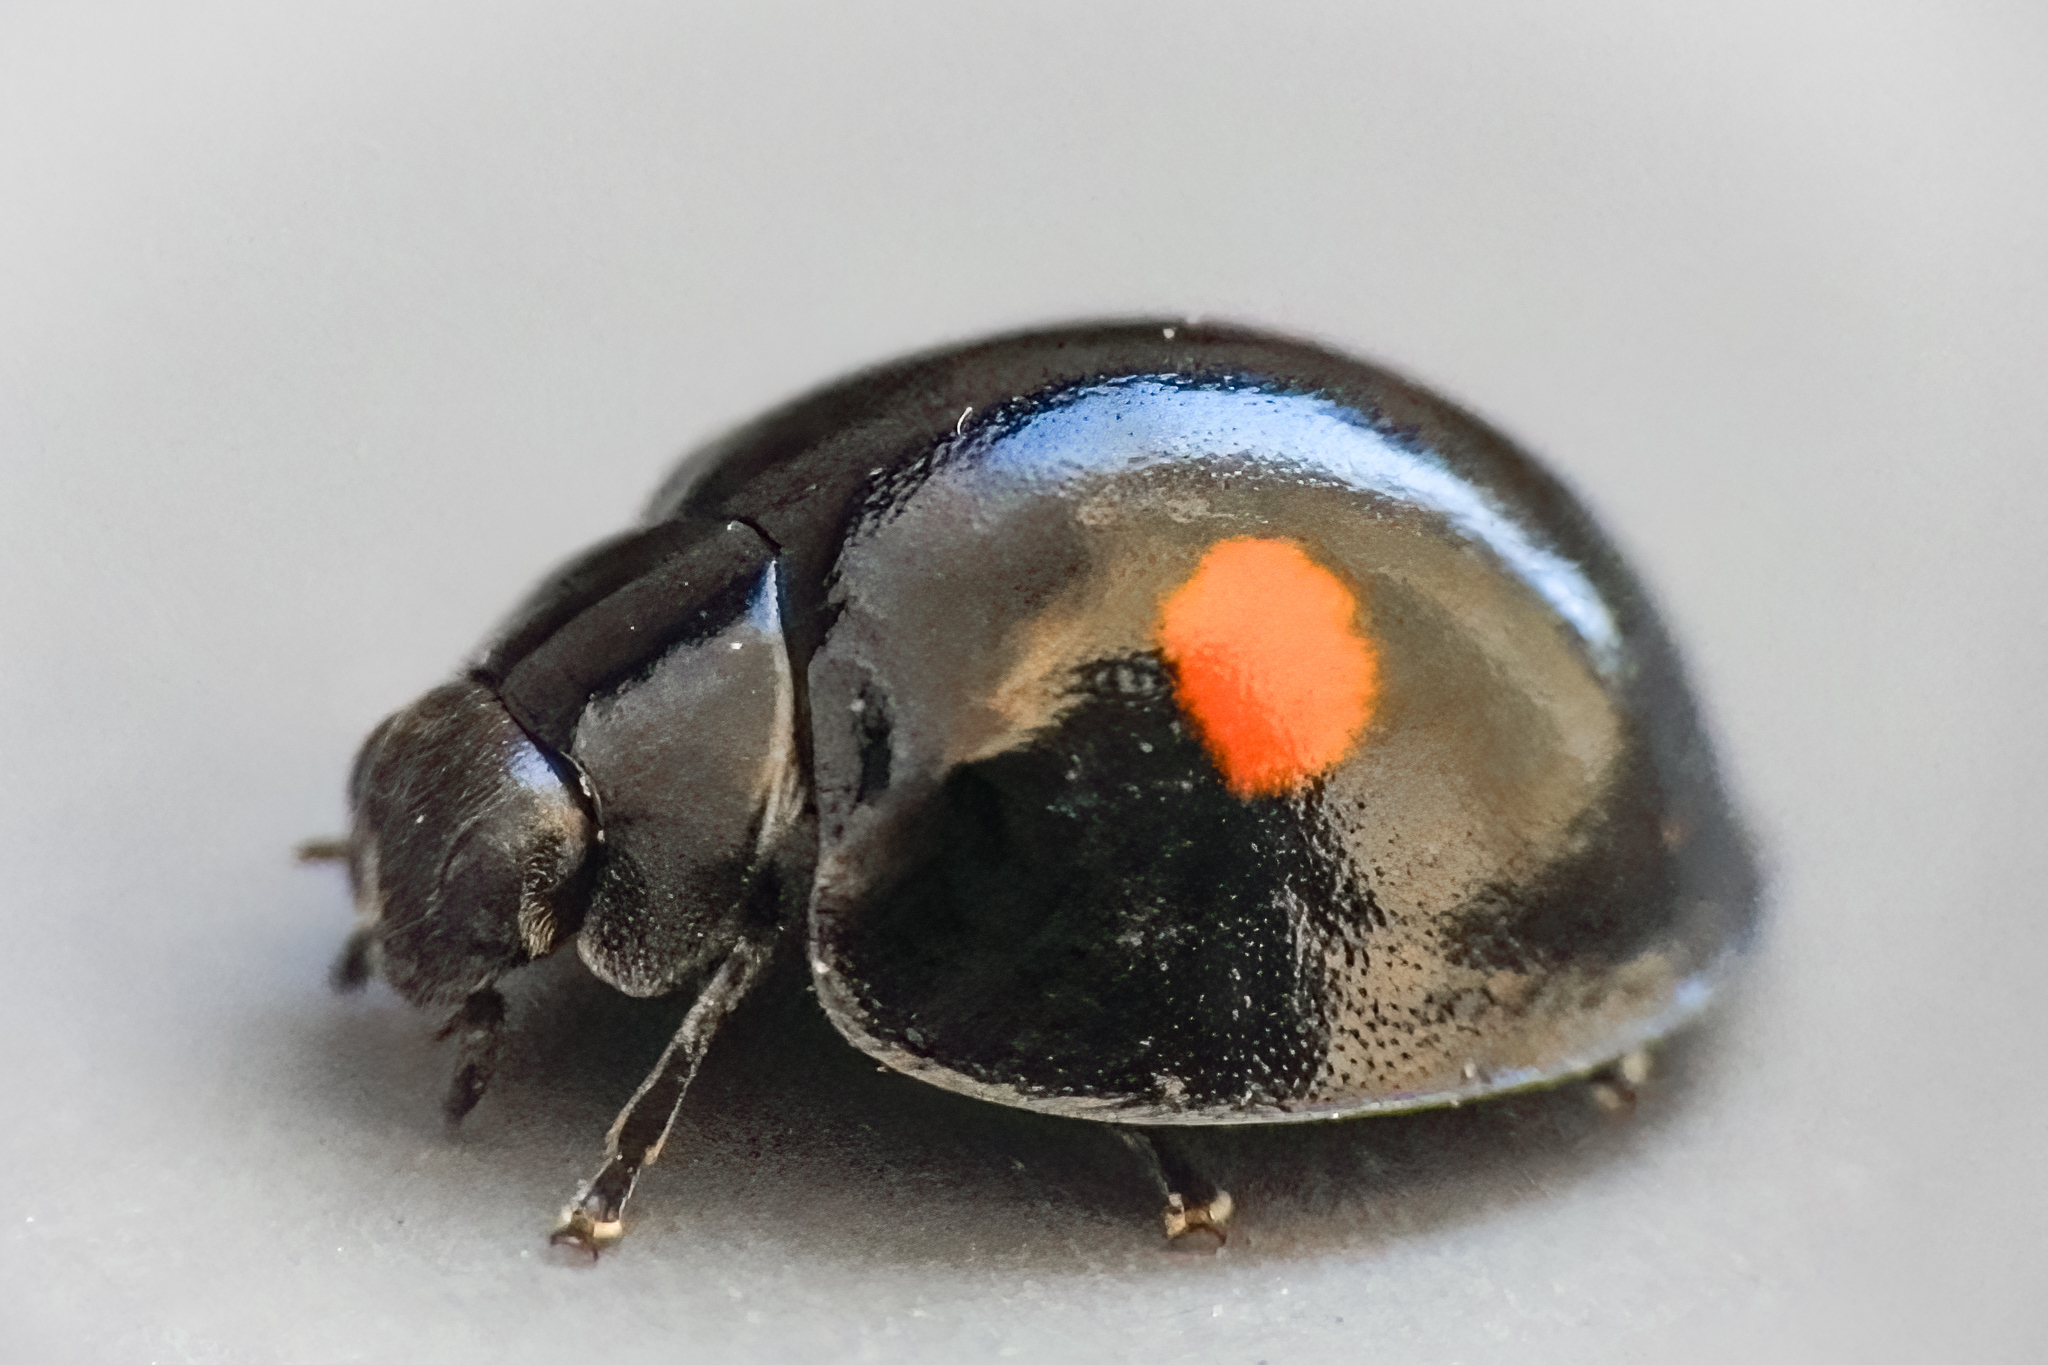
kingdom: Animalia
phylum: Arthropoda
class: Insecta
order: Coleoptera
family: Coccinellidae
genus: Chilocorus
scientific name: Chilocorus stigma
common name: Twicestabbed lady beetle
